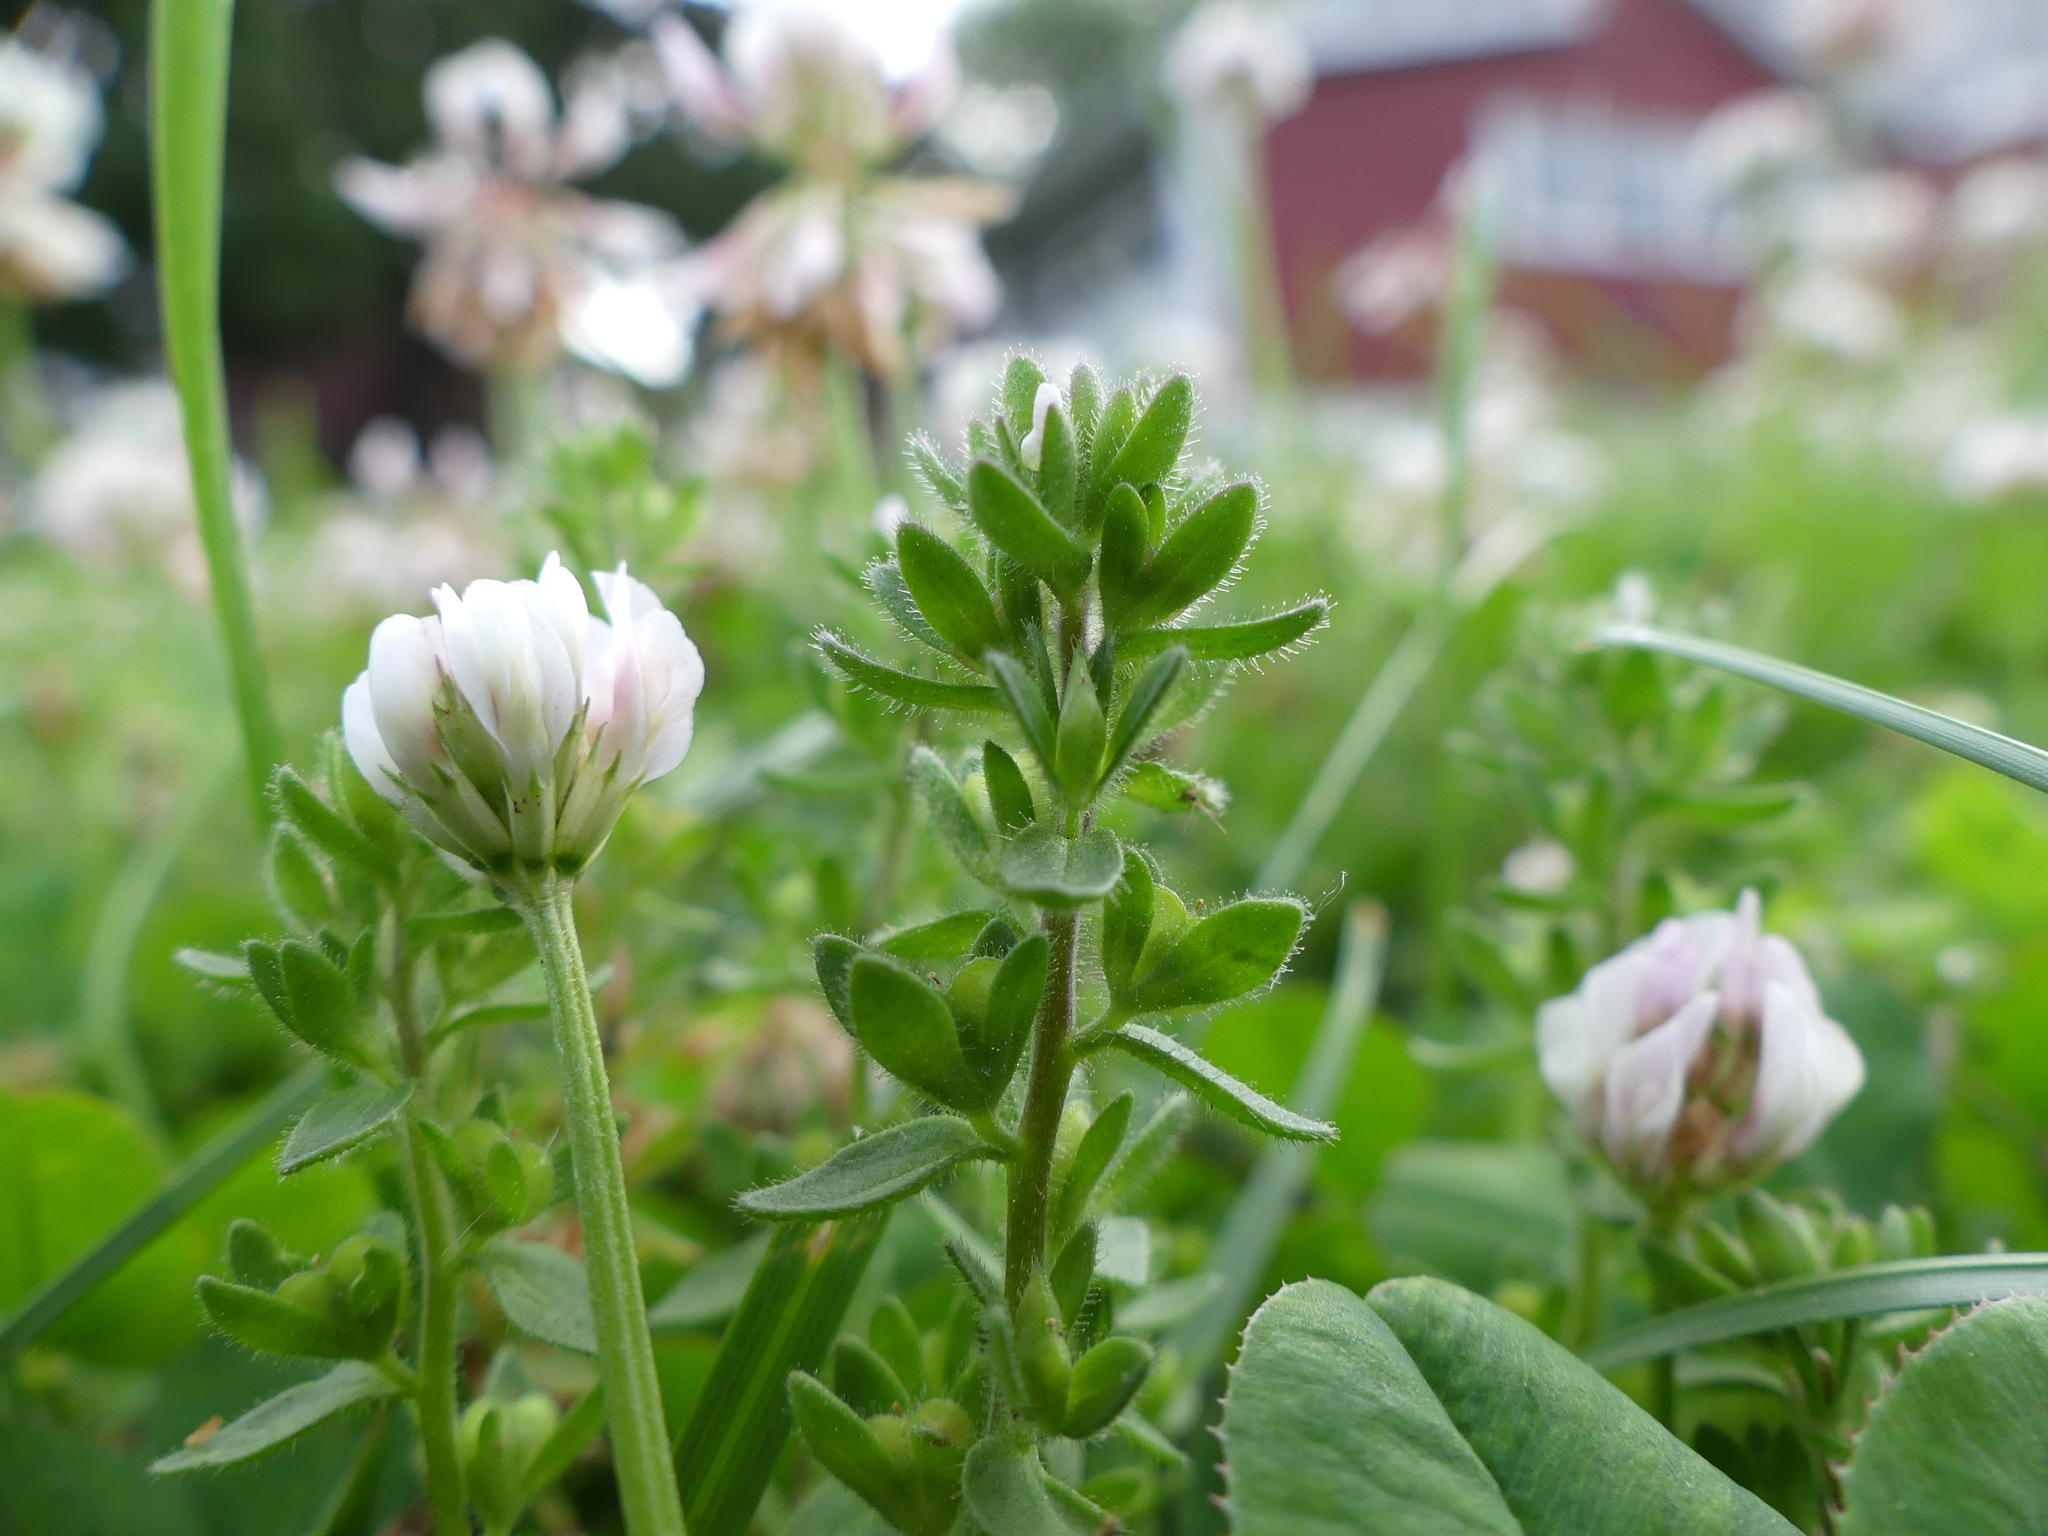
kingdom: Plantae
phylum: Tracheophyta
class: Magnoliopsida
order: Lamiales
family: Plantaginaceae
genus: Veronica
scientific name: Veronica arvensis
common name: Corn speedwell
